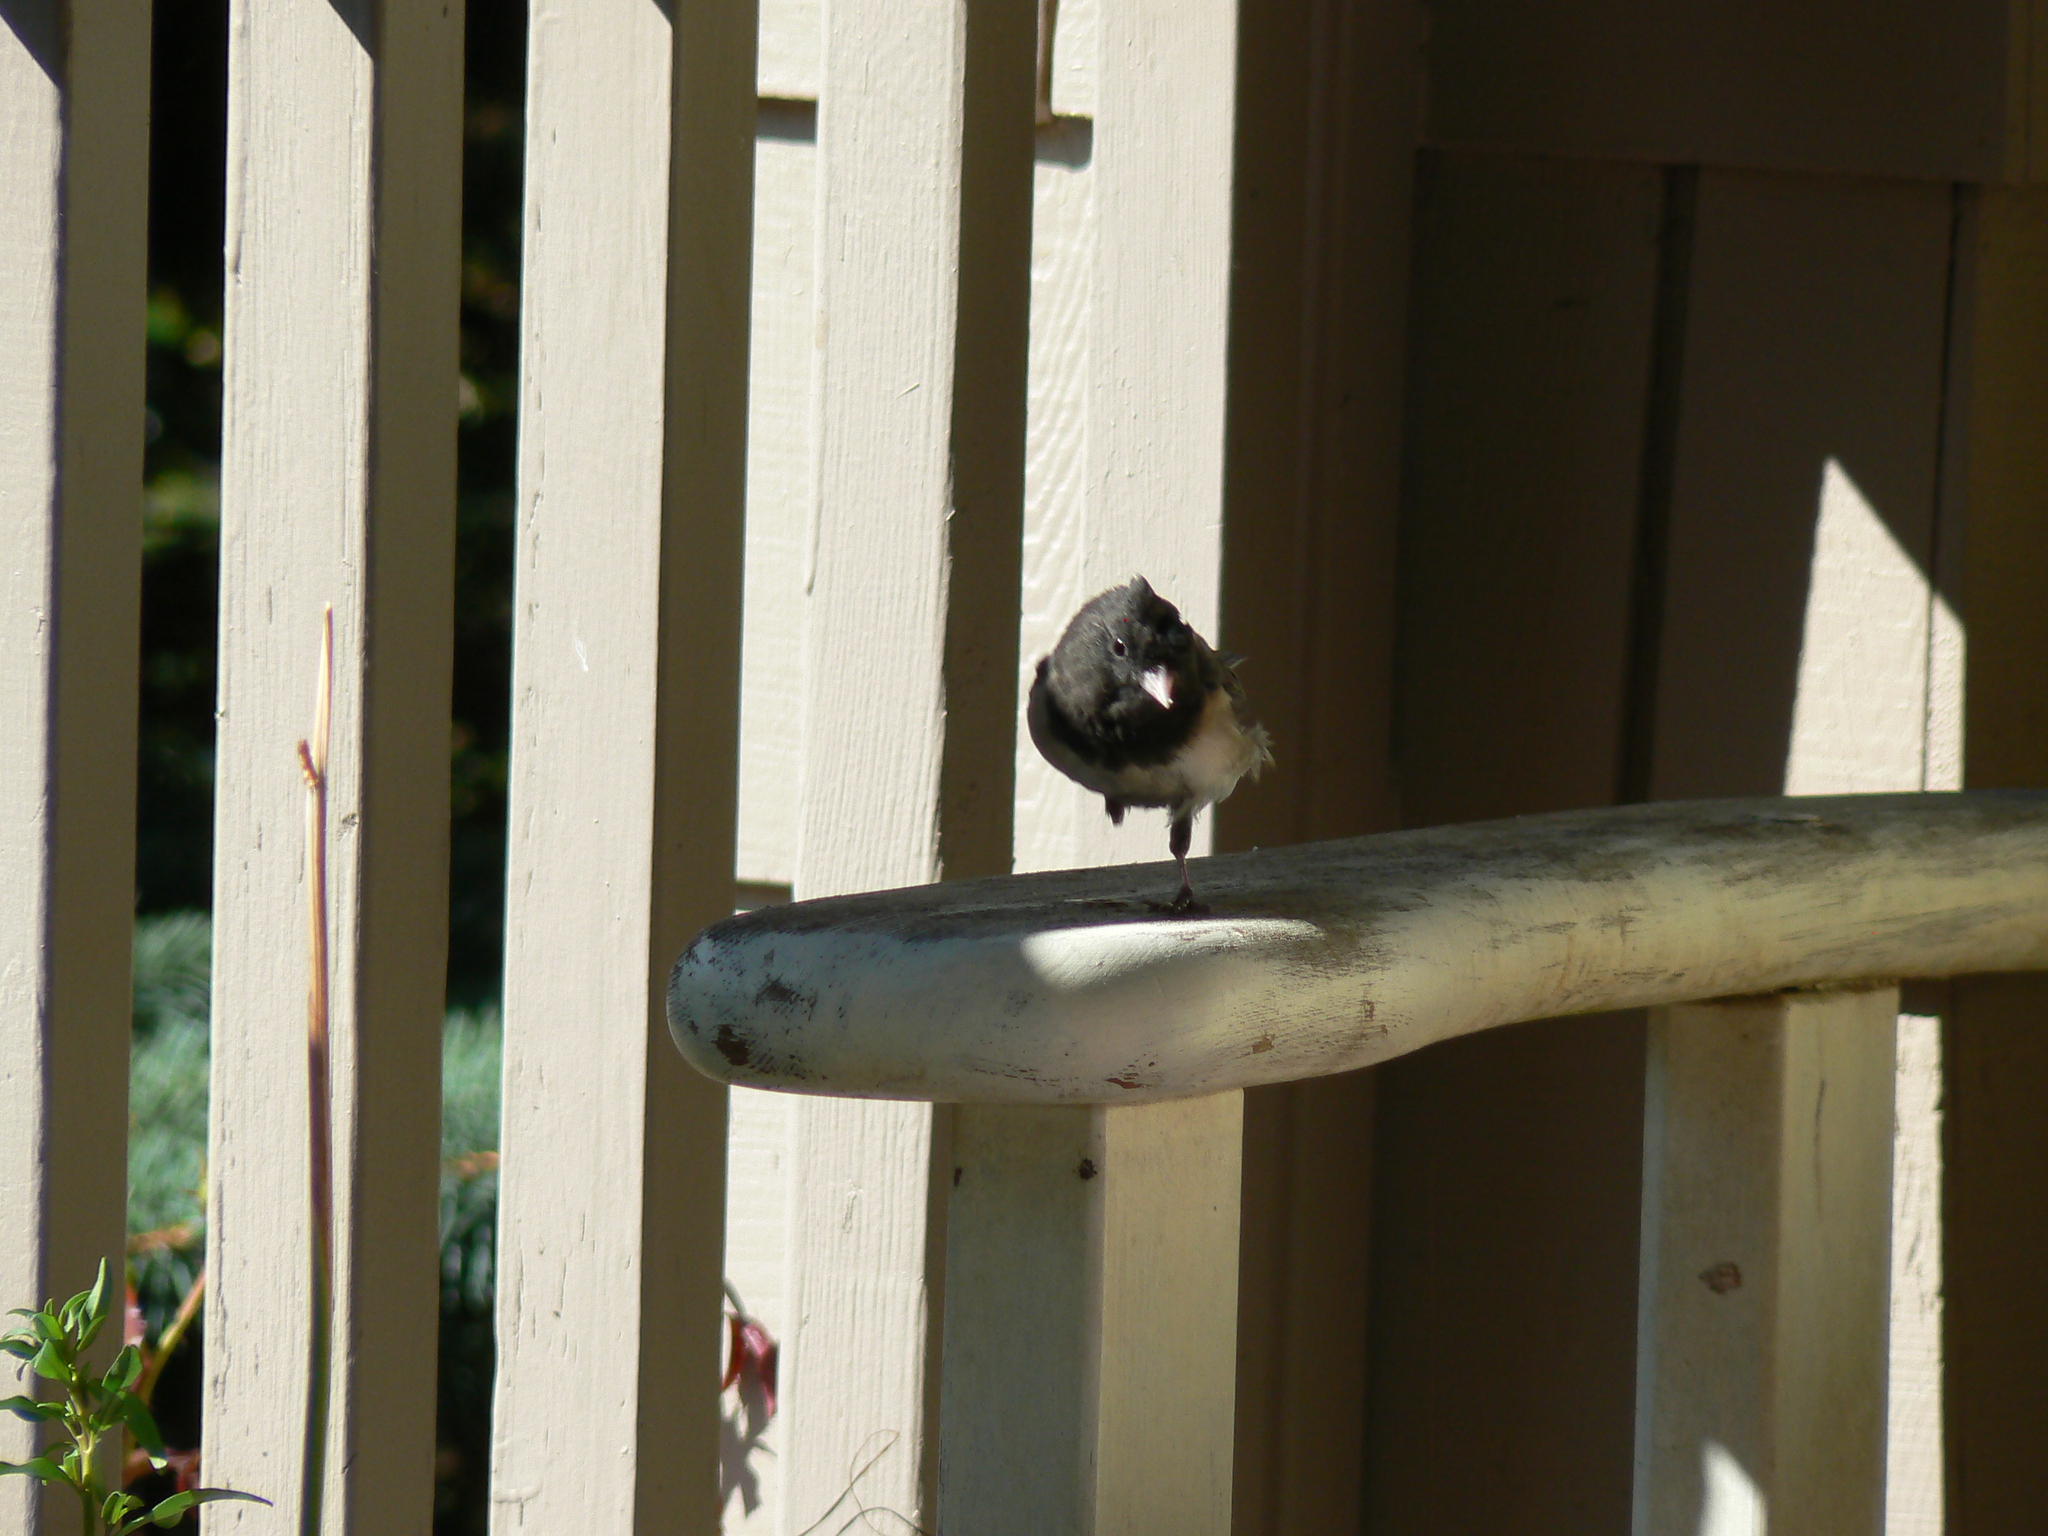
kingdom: Animalia
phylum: Chordata
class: Aves
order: Passeriformes
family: Passerellidae
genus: Junco
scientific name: Junco hyemalis
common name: Dark-eyed junco
